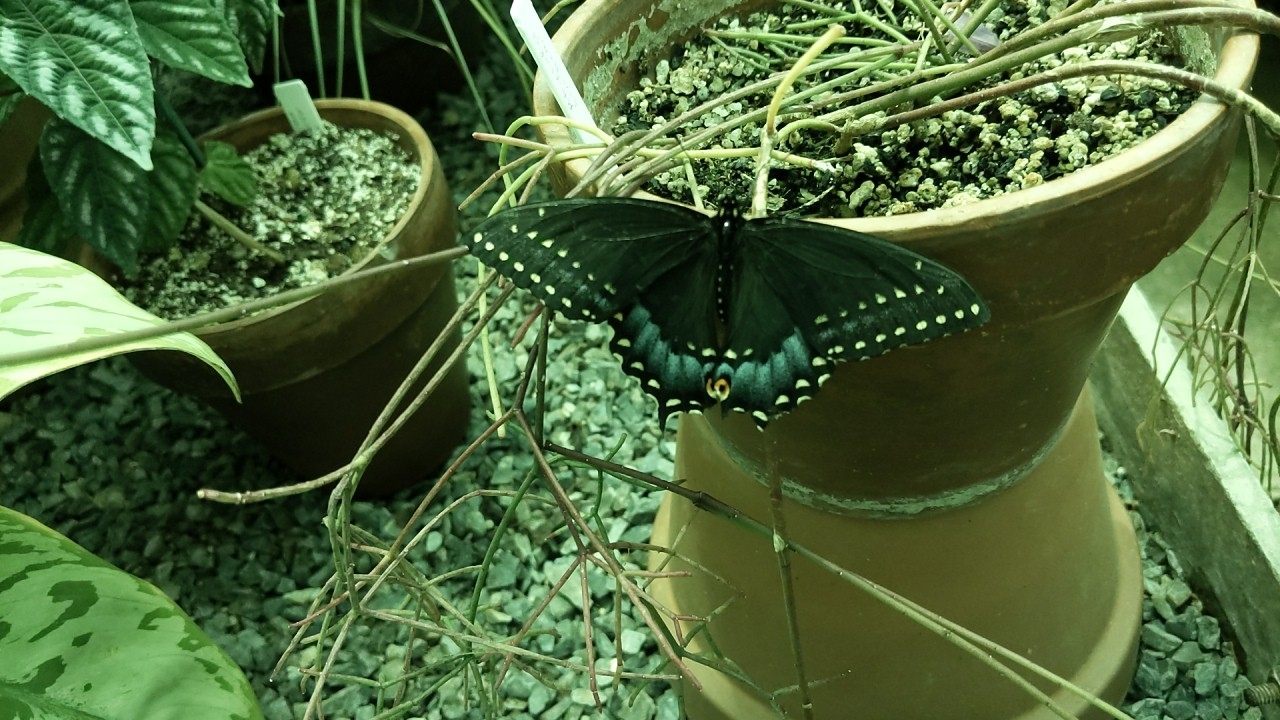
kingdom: Animalia
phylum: Arthropoda
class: Insecta
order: Lepidoptera
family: Papilionidae
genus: Papilio
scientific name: Papilio polyxenes
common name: Black swallowtail
